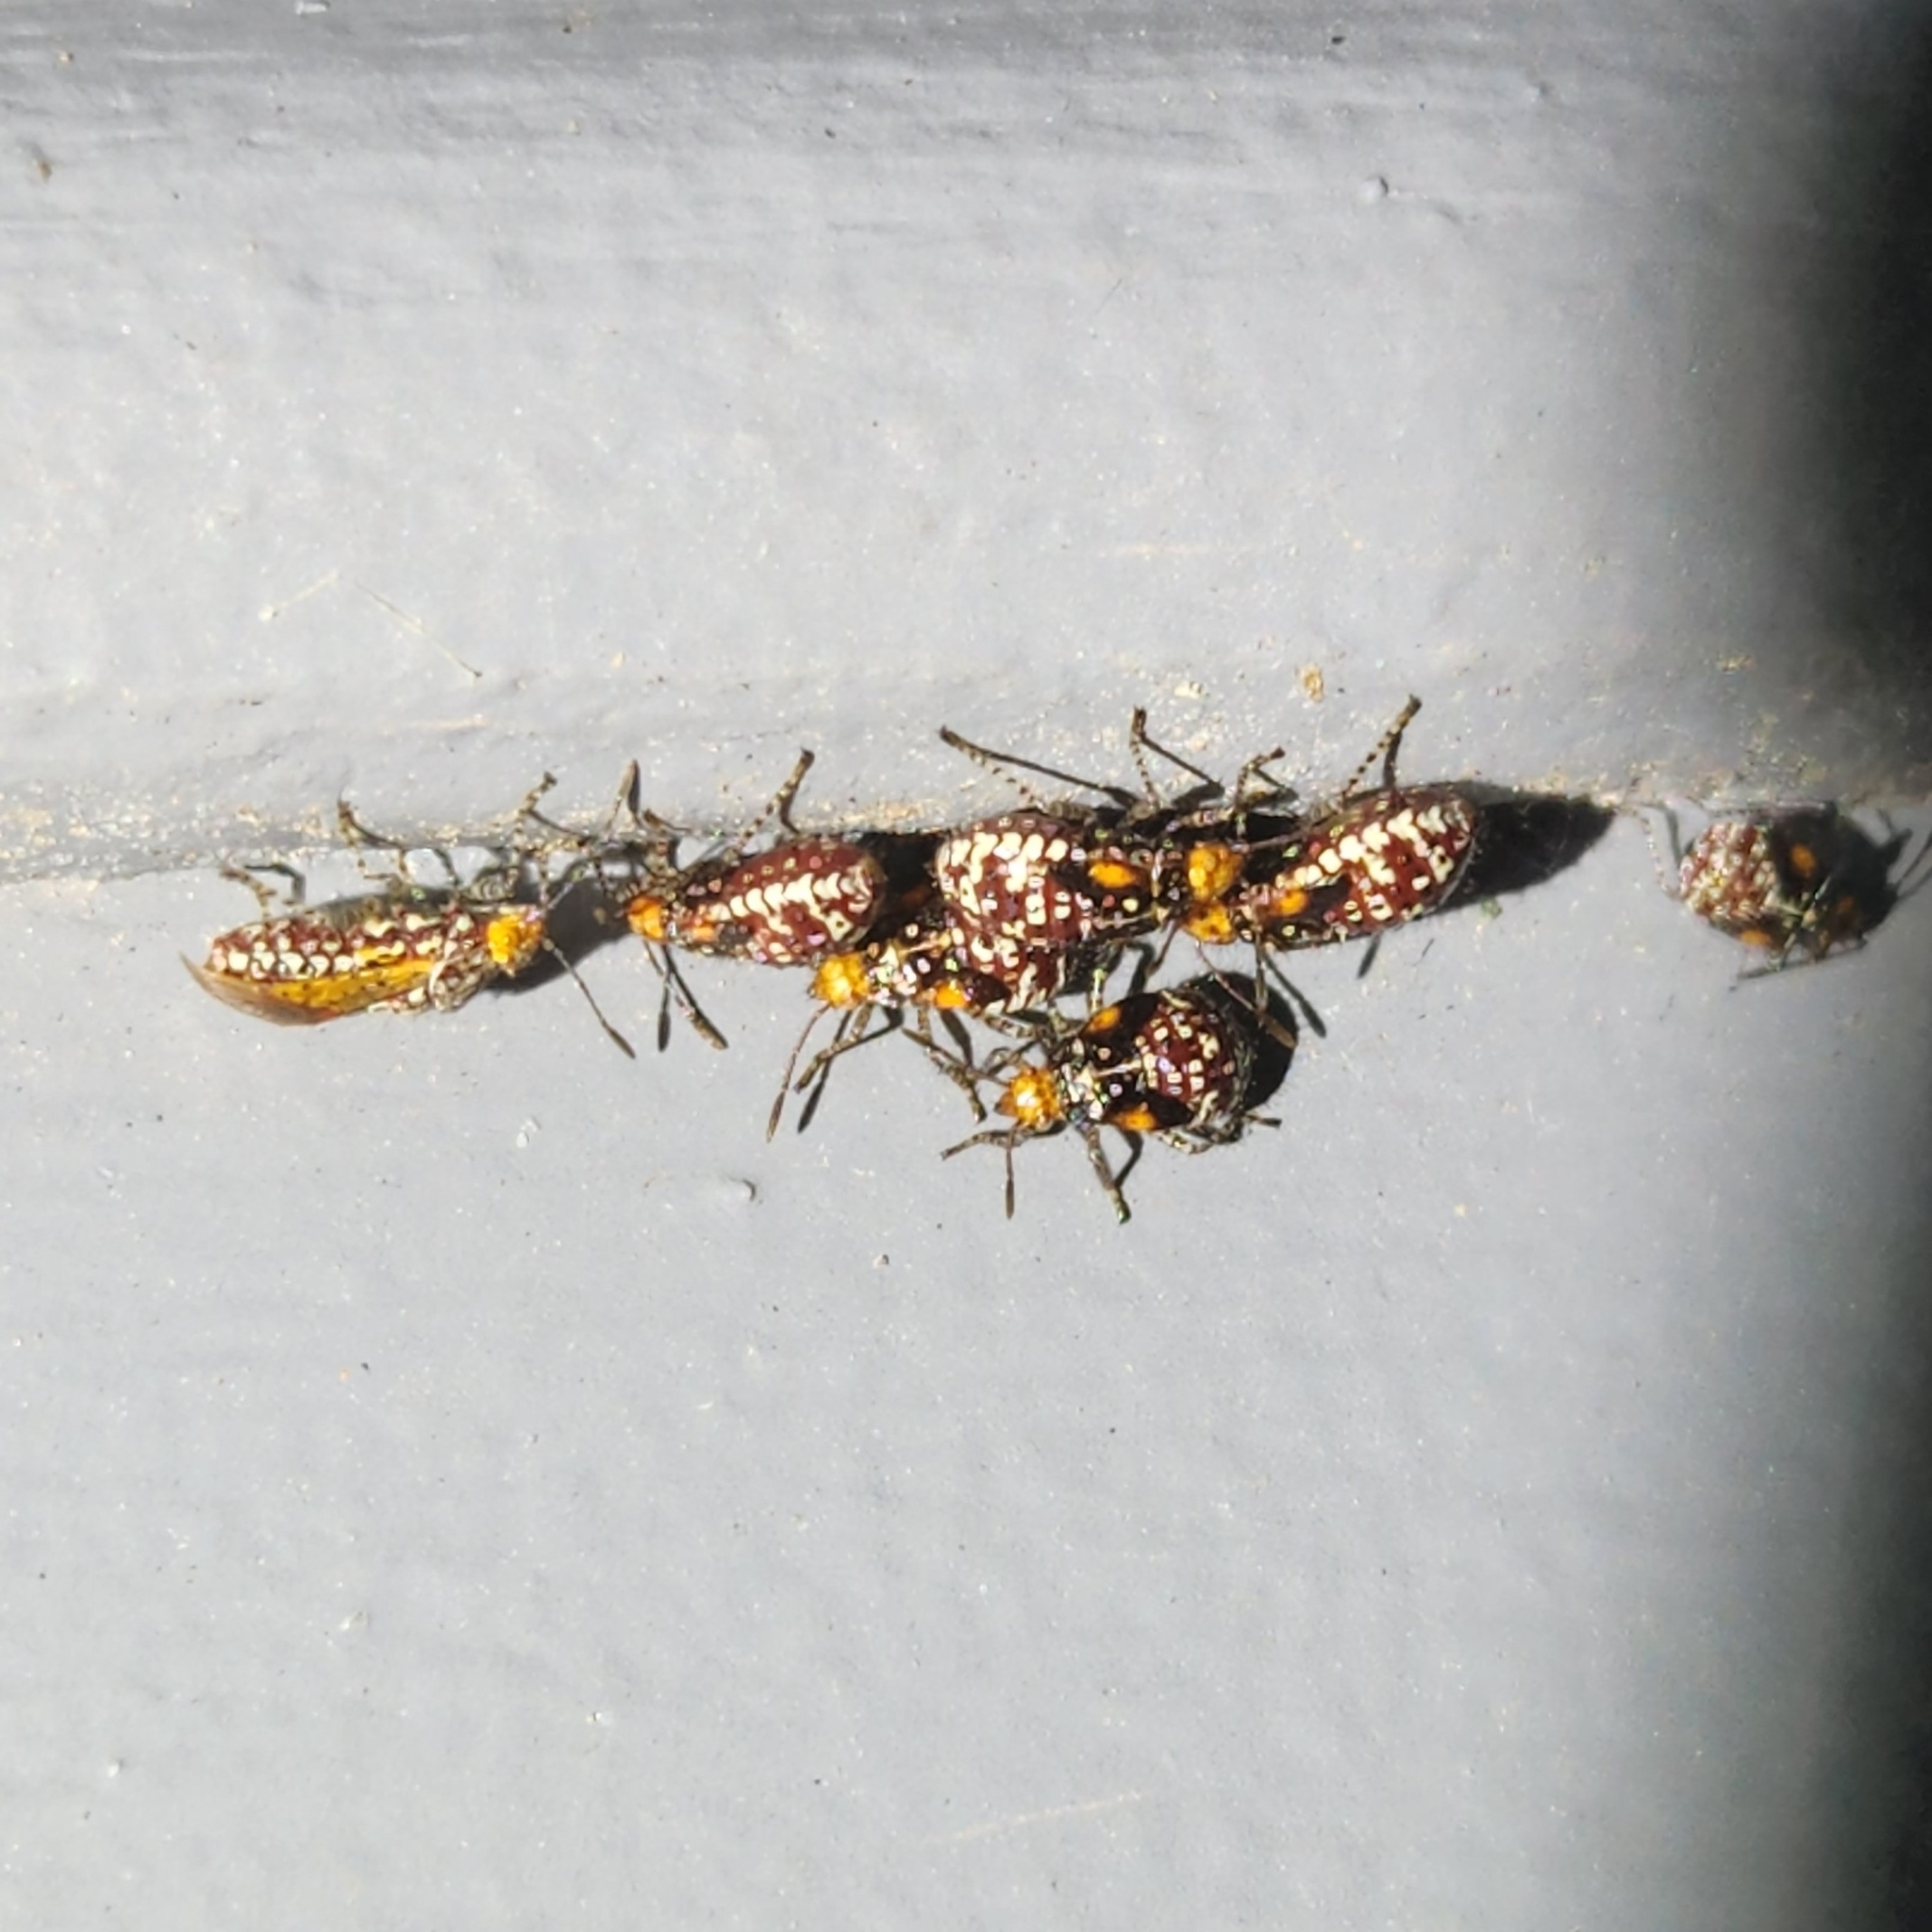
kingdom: Animalia
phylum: Arthropoda
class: Insecta
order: Hemiptera
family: Rhopalidae
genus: Niesthrea
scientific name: Niesthrea louisianica
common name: Scentless plant bug
